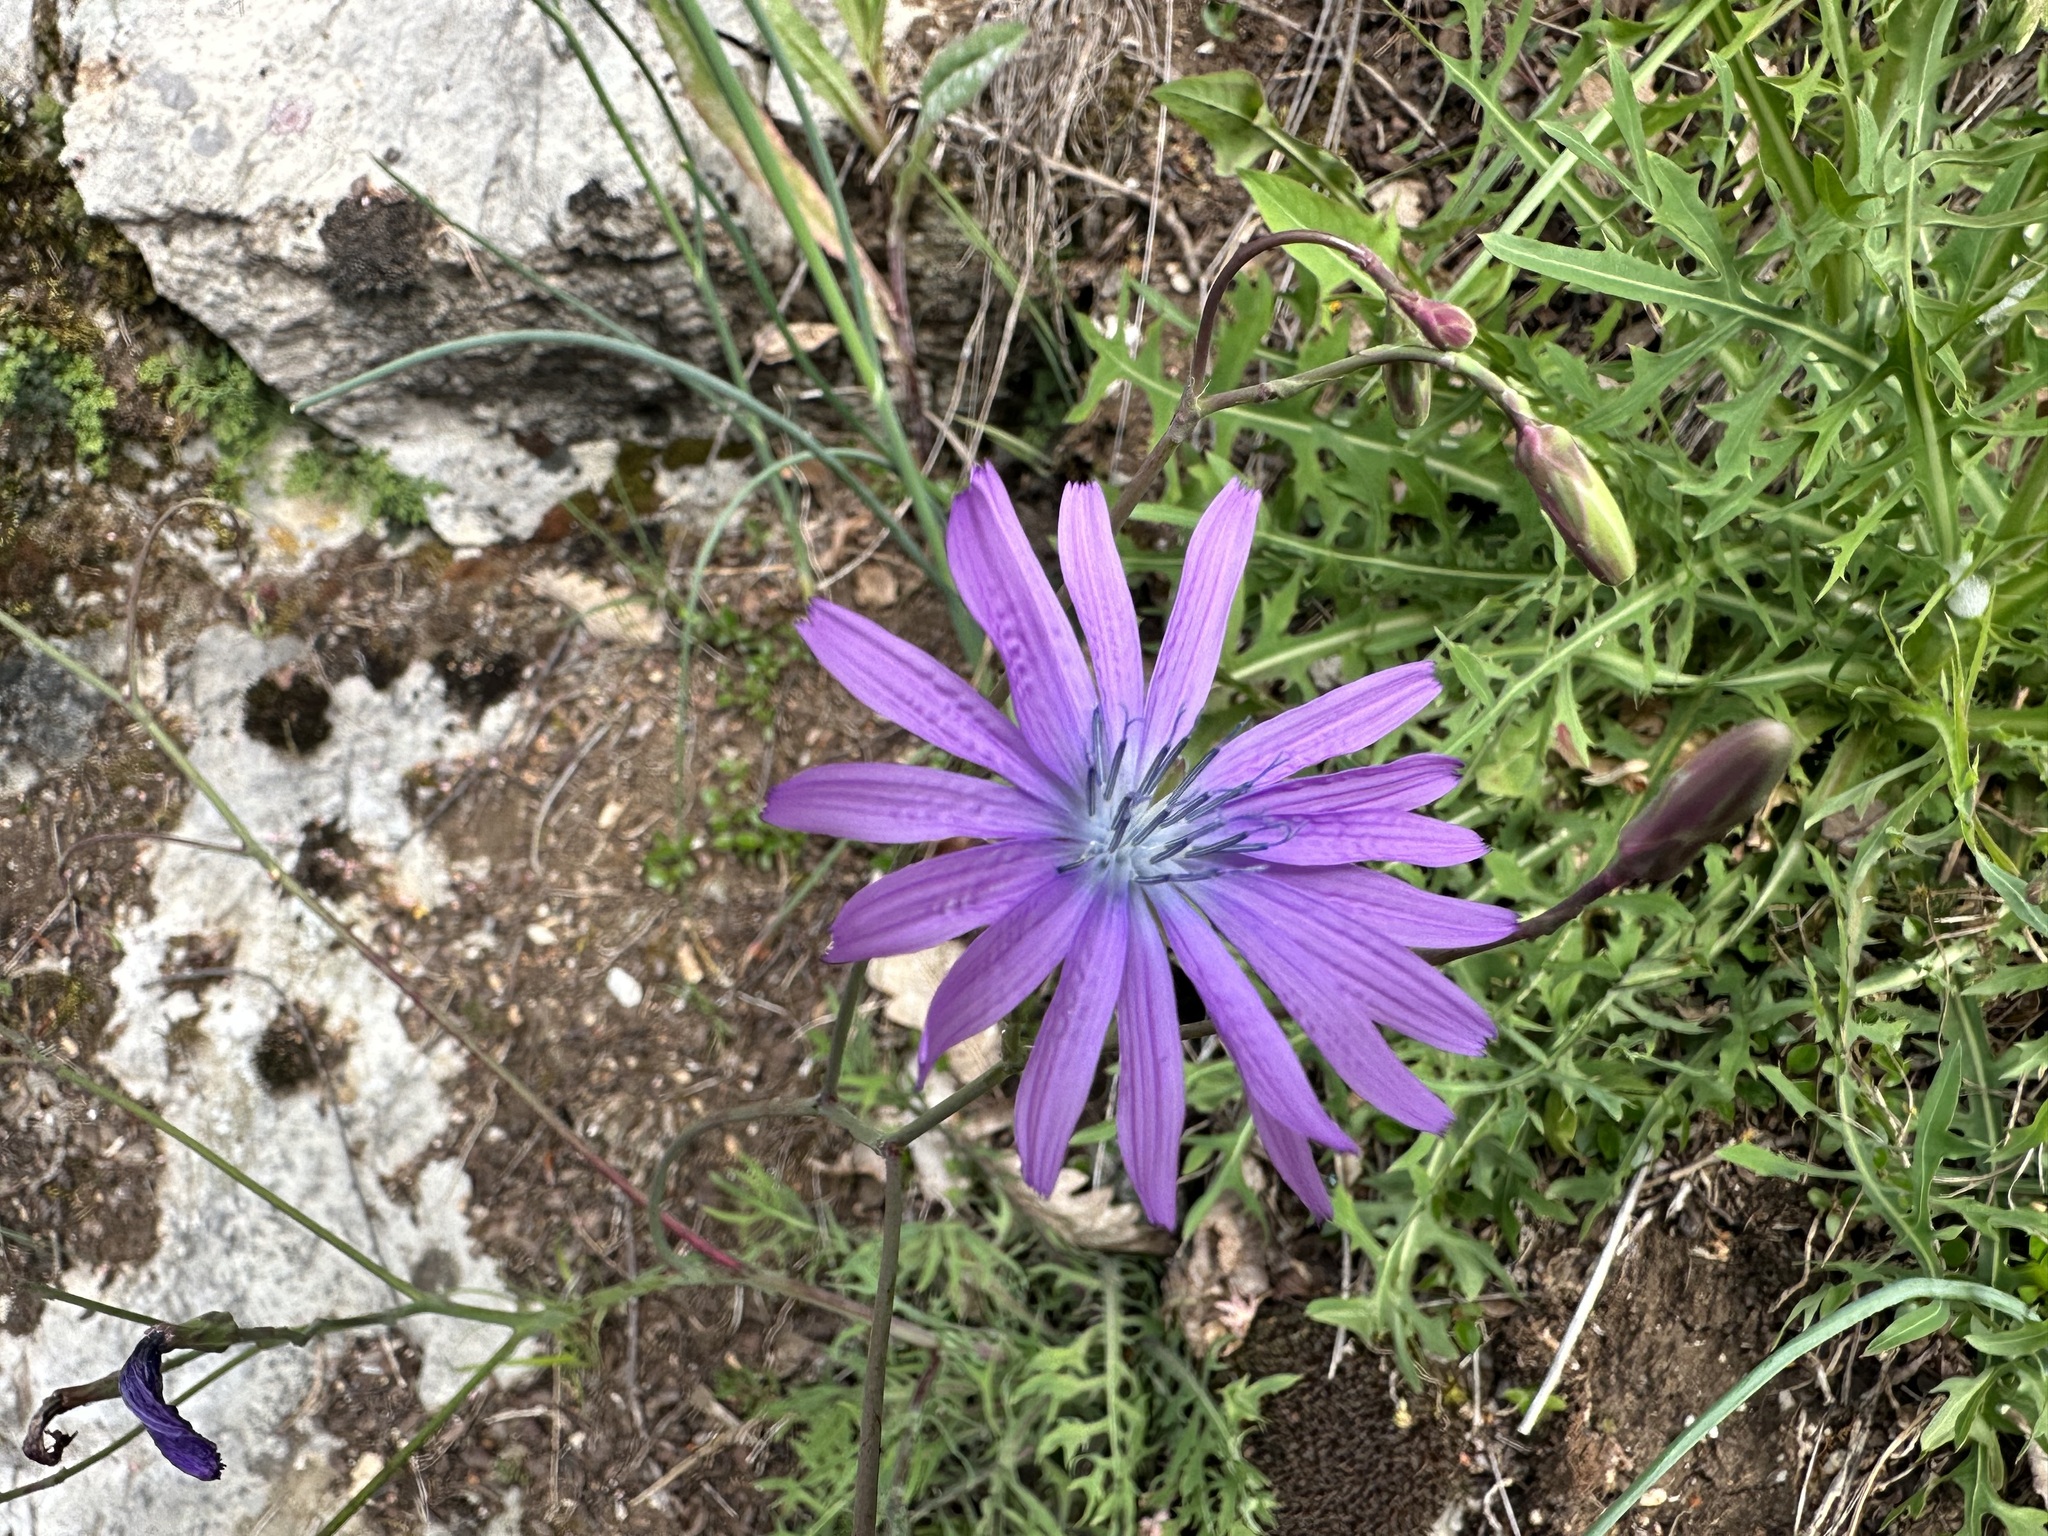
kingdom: Plantae
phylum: Tracheophyta
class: Magnoliopsida
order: Asterales
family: Asteraceae
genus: Lactuca
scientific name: Lactuca perennis
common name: Mountain lettuce
